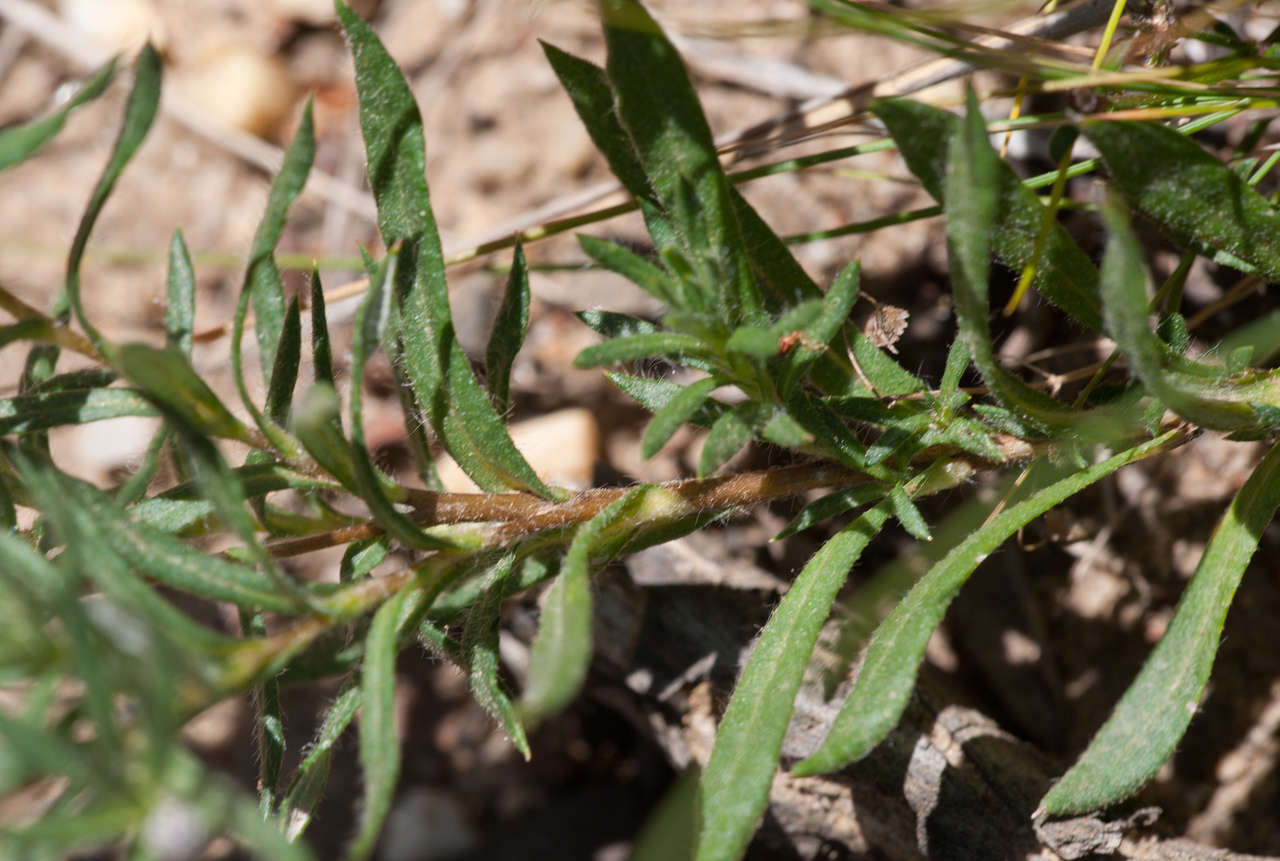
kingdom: Plantae
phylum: Tracheophyta
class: Magnoliopsida
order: Asterales
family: Asteraceae
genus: Leptorhynchos
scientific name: Leptorhynchos squamatus
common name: Scaly-buttons
